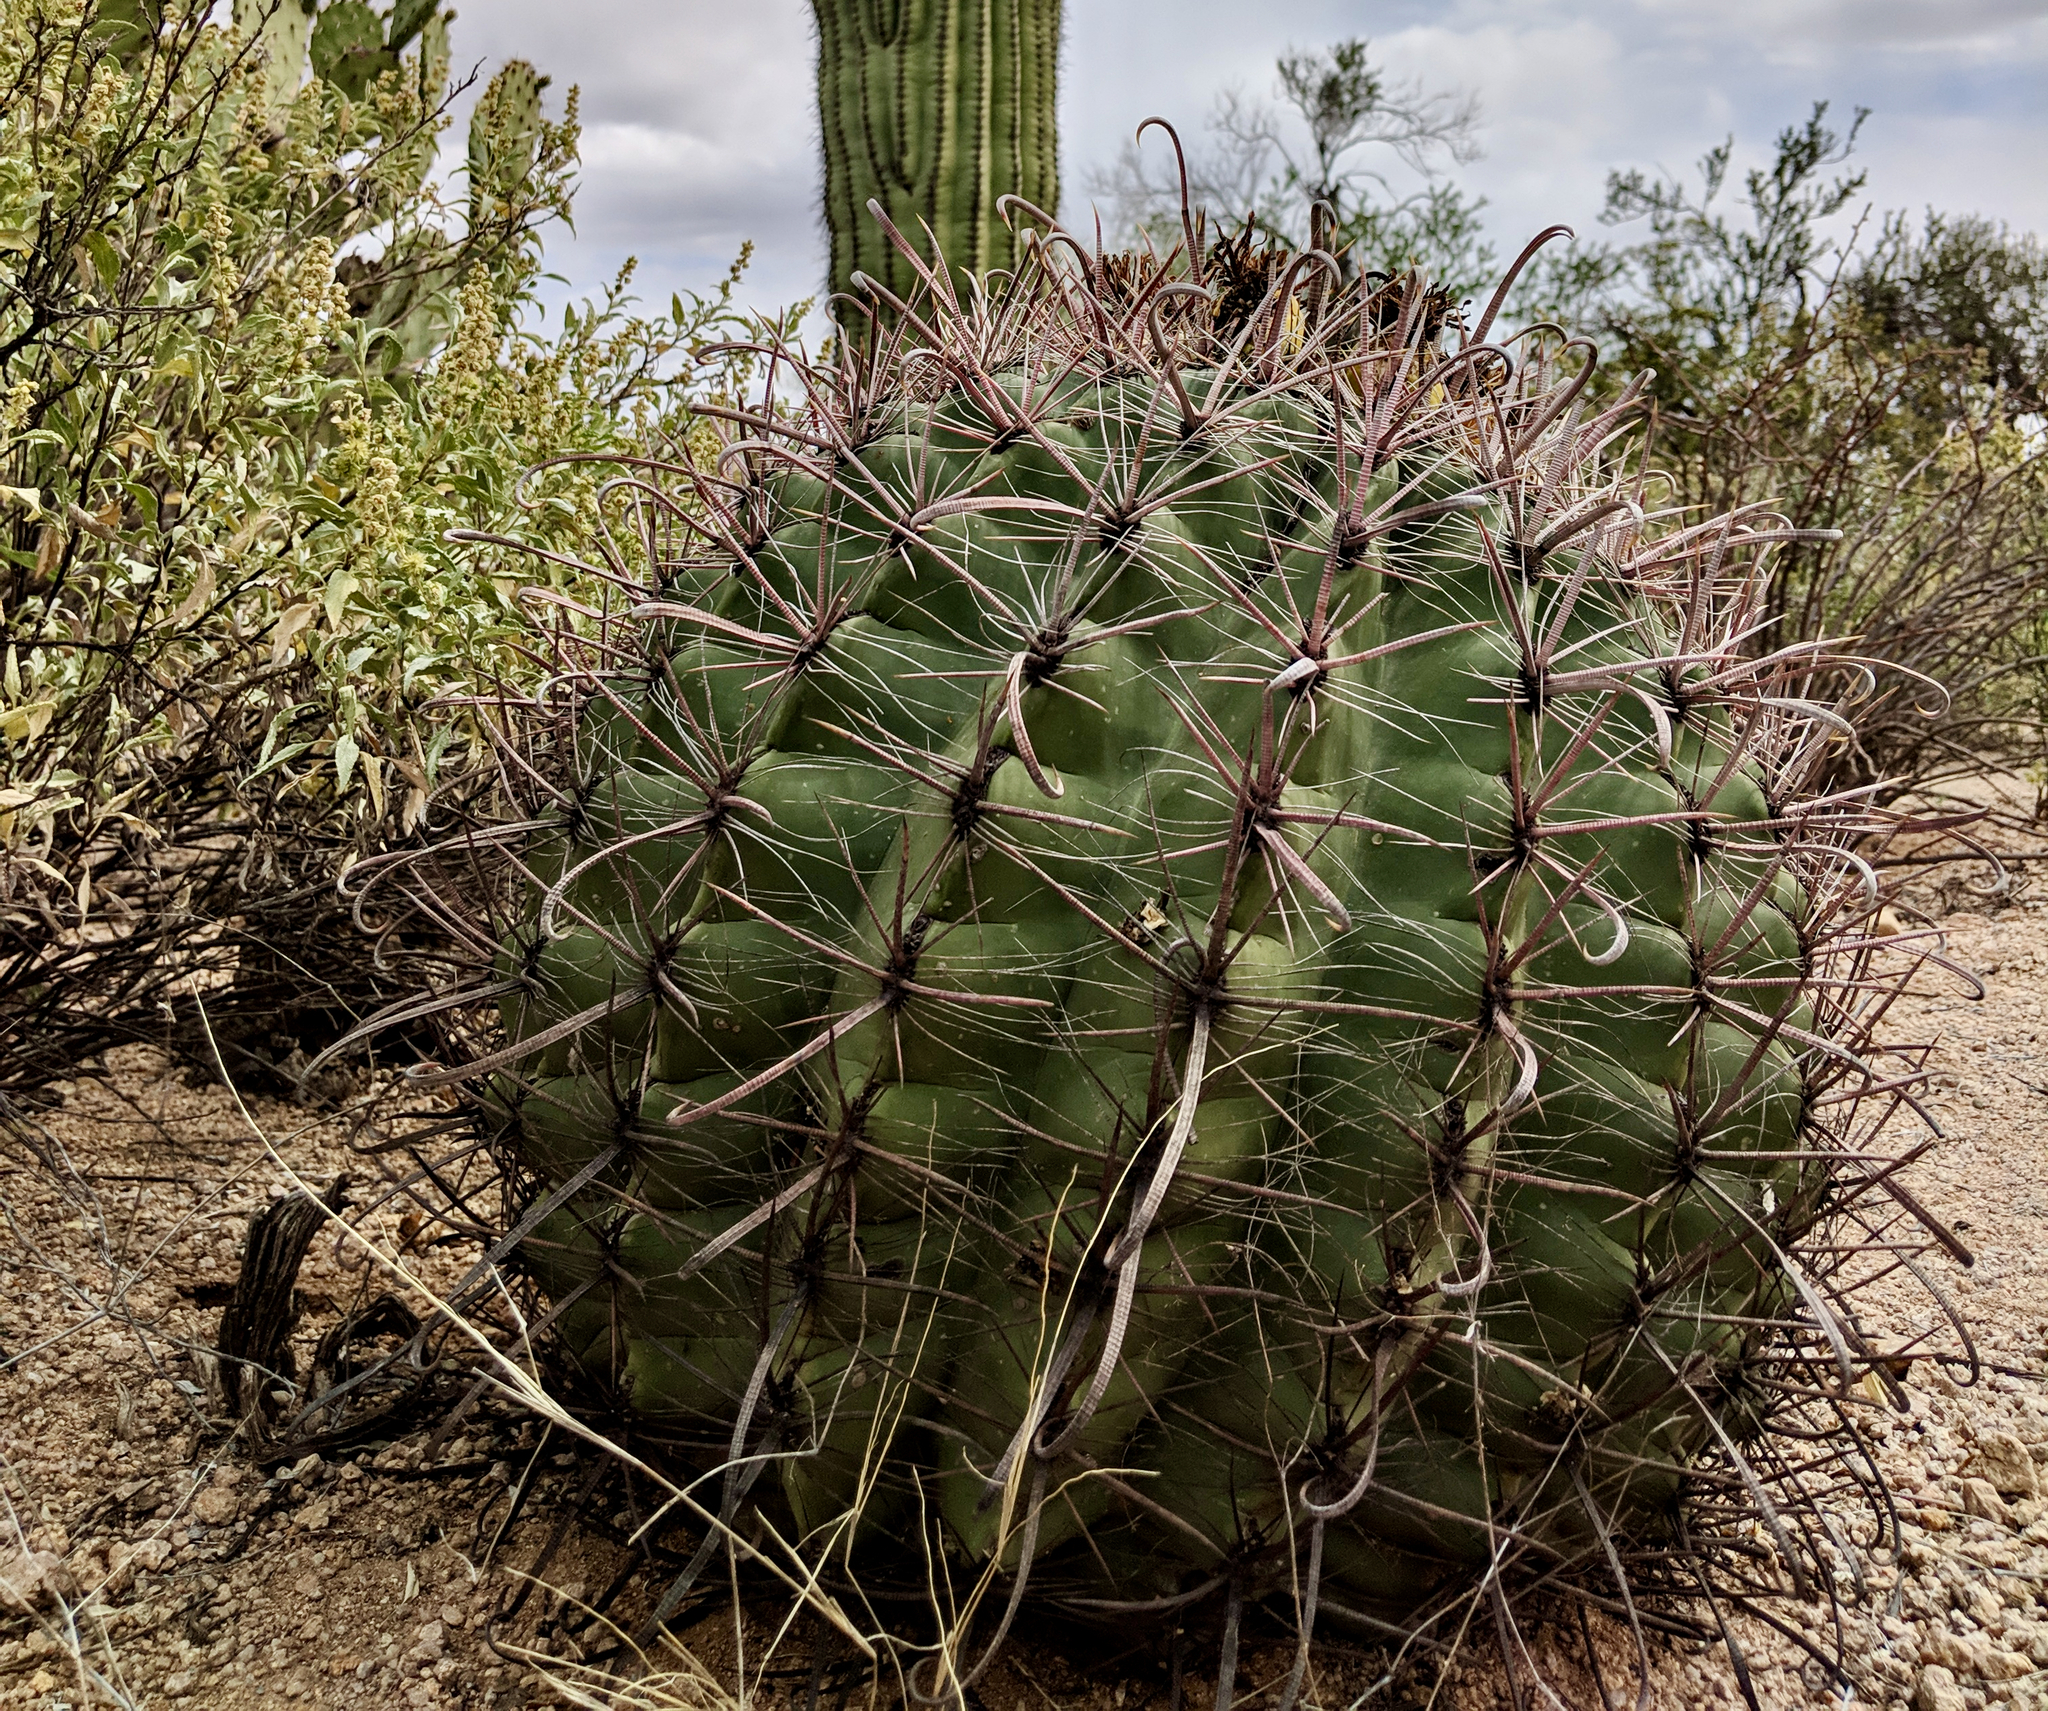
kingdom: Plantae
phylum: Tracheophyta
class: Magnoliopsida
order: Caryophyllales
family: Cactaceae
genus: Ferocactus
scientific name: Ferocactus wislizeni
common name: Candy barrel cactus
